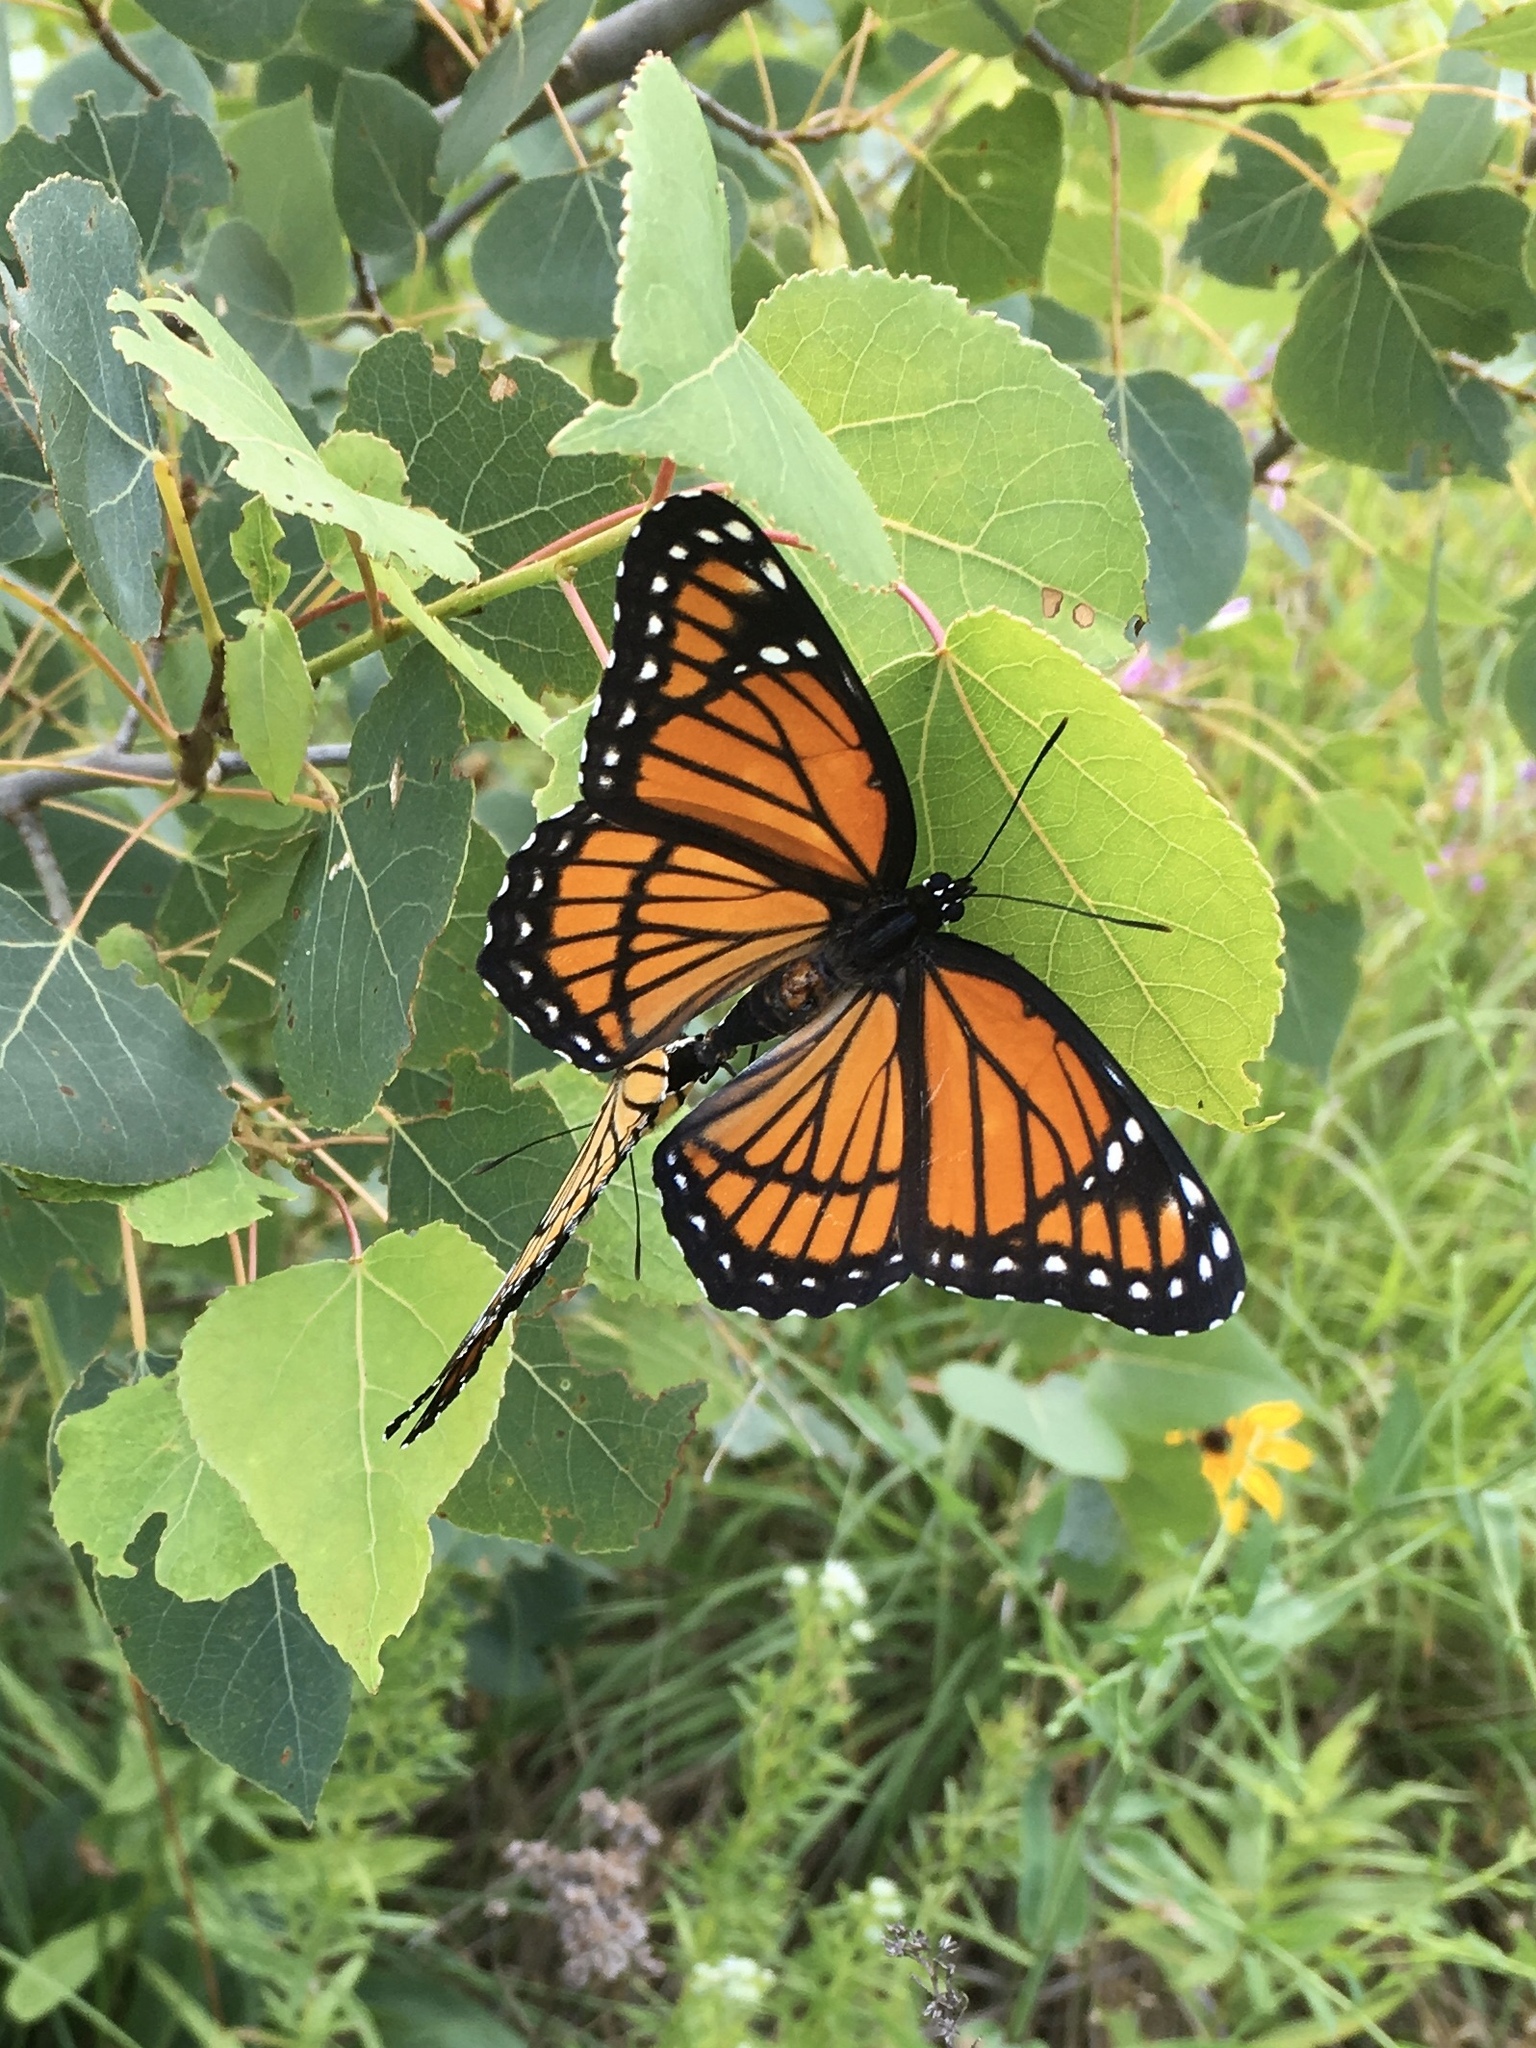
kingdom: Animalia
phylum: Arthropoda
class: Insecta
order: Lepidoptera
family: Nymphalidae
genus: Limenitis
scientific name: Limenitis archippus
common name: Viceroy
